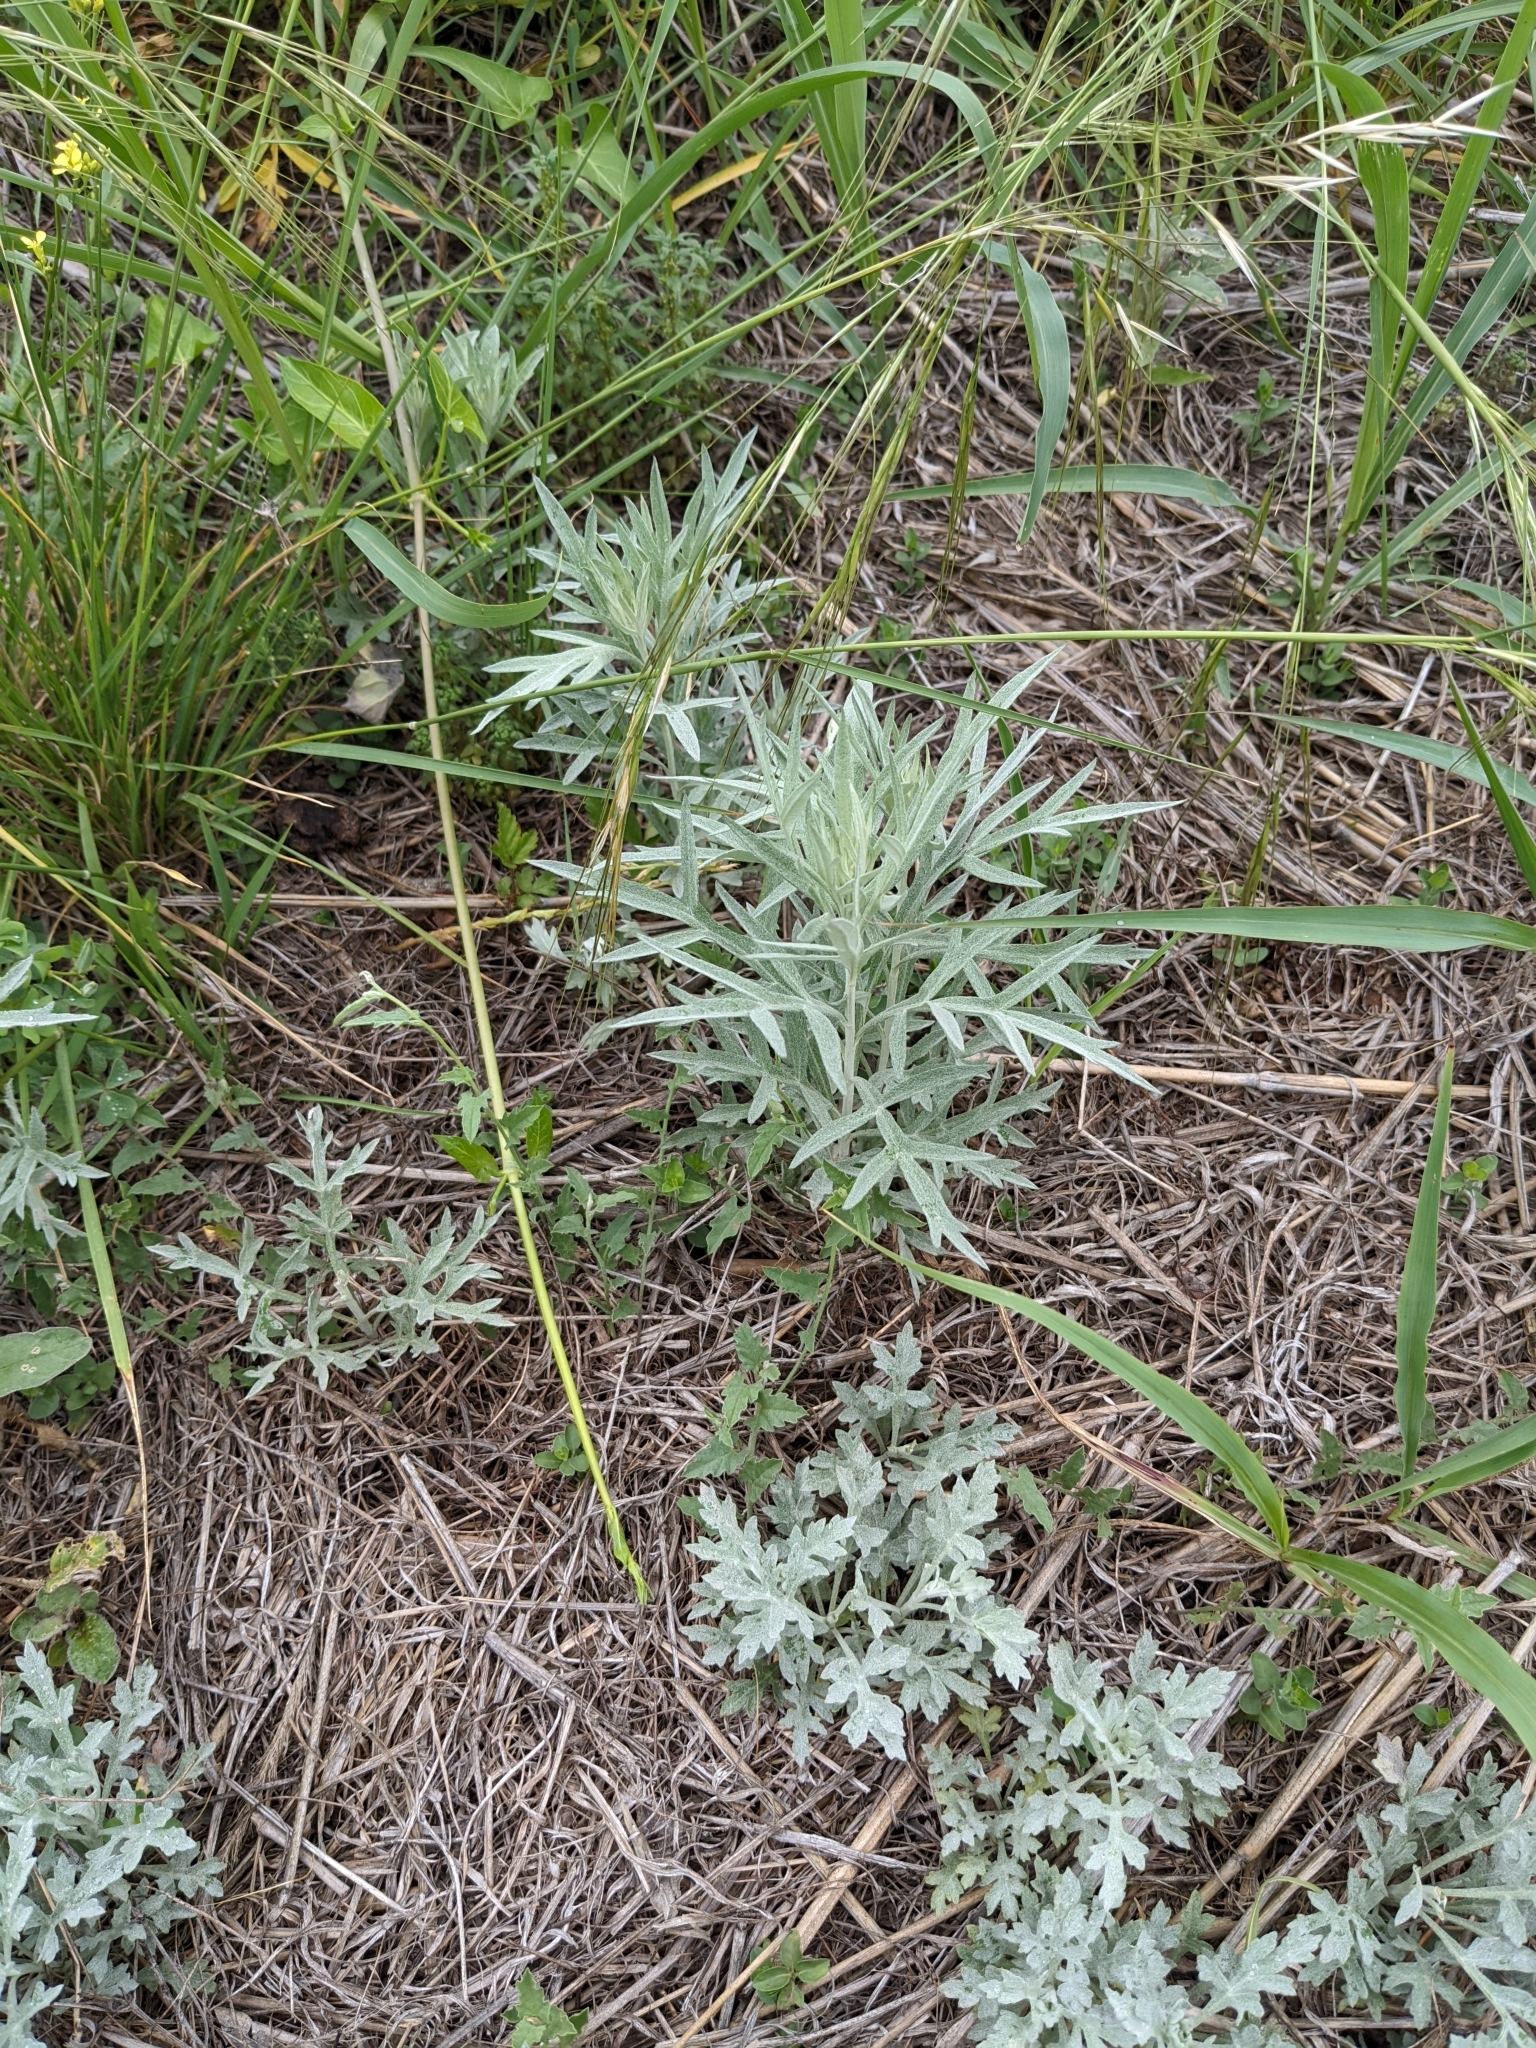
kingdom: Plantae
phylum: Tracheophyta
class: Magnoliopsida
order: Asterales
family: Asteraceae
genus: Artemisia
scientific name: Artemisia ludoviciana
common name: Western mugwort
